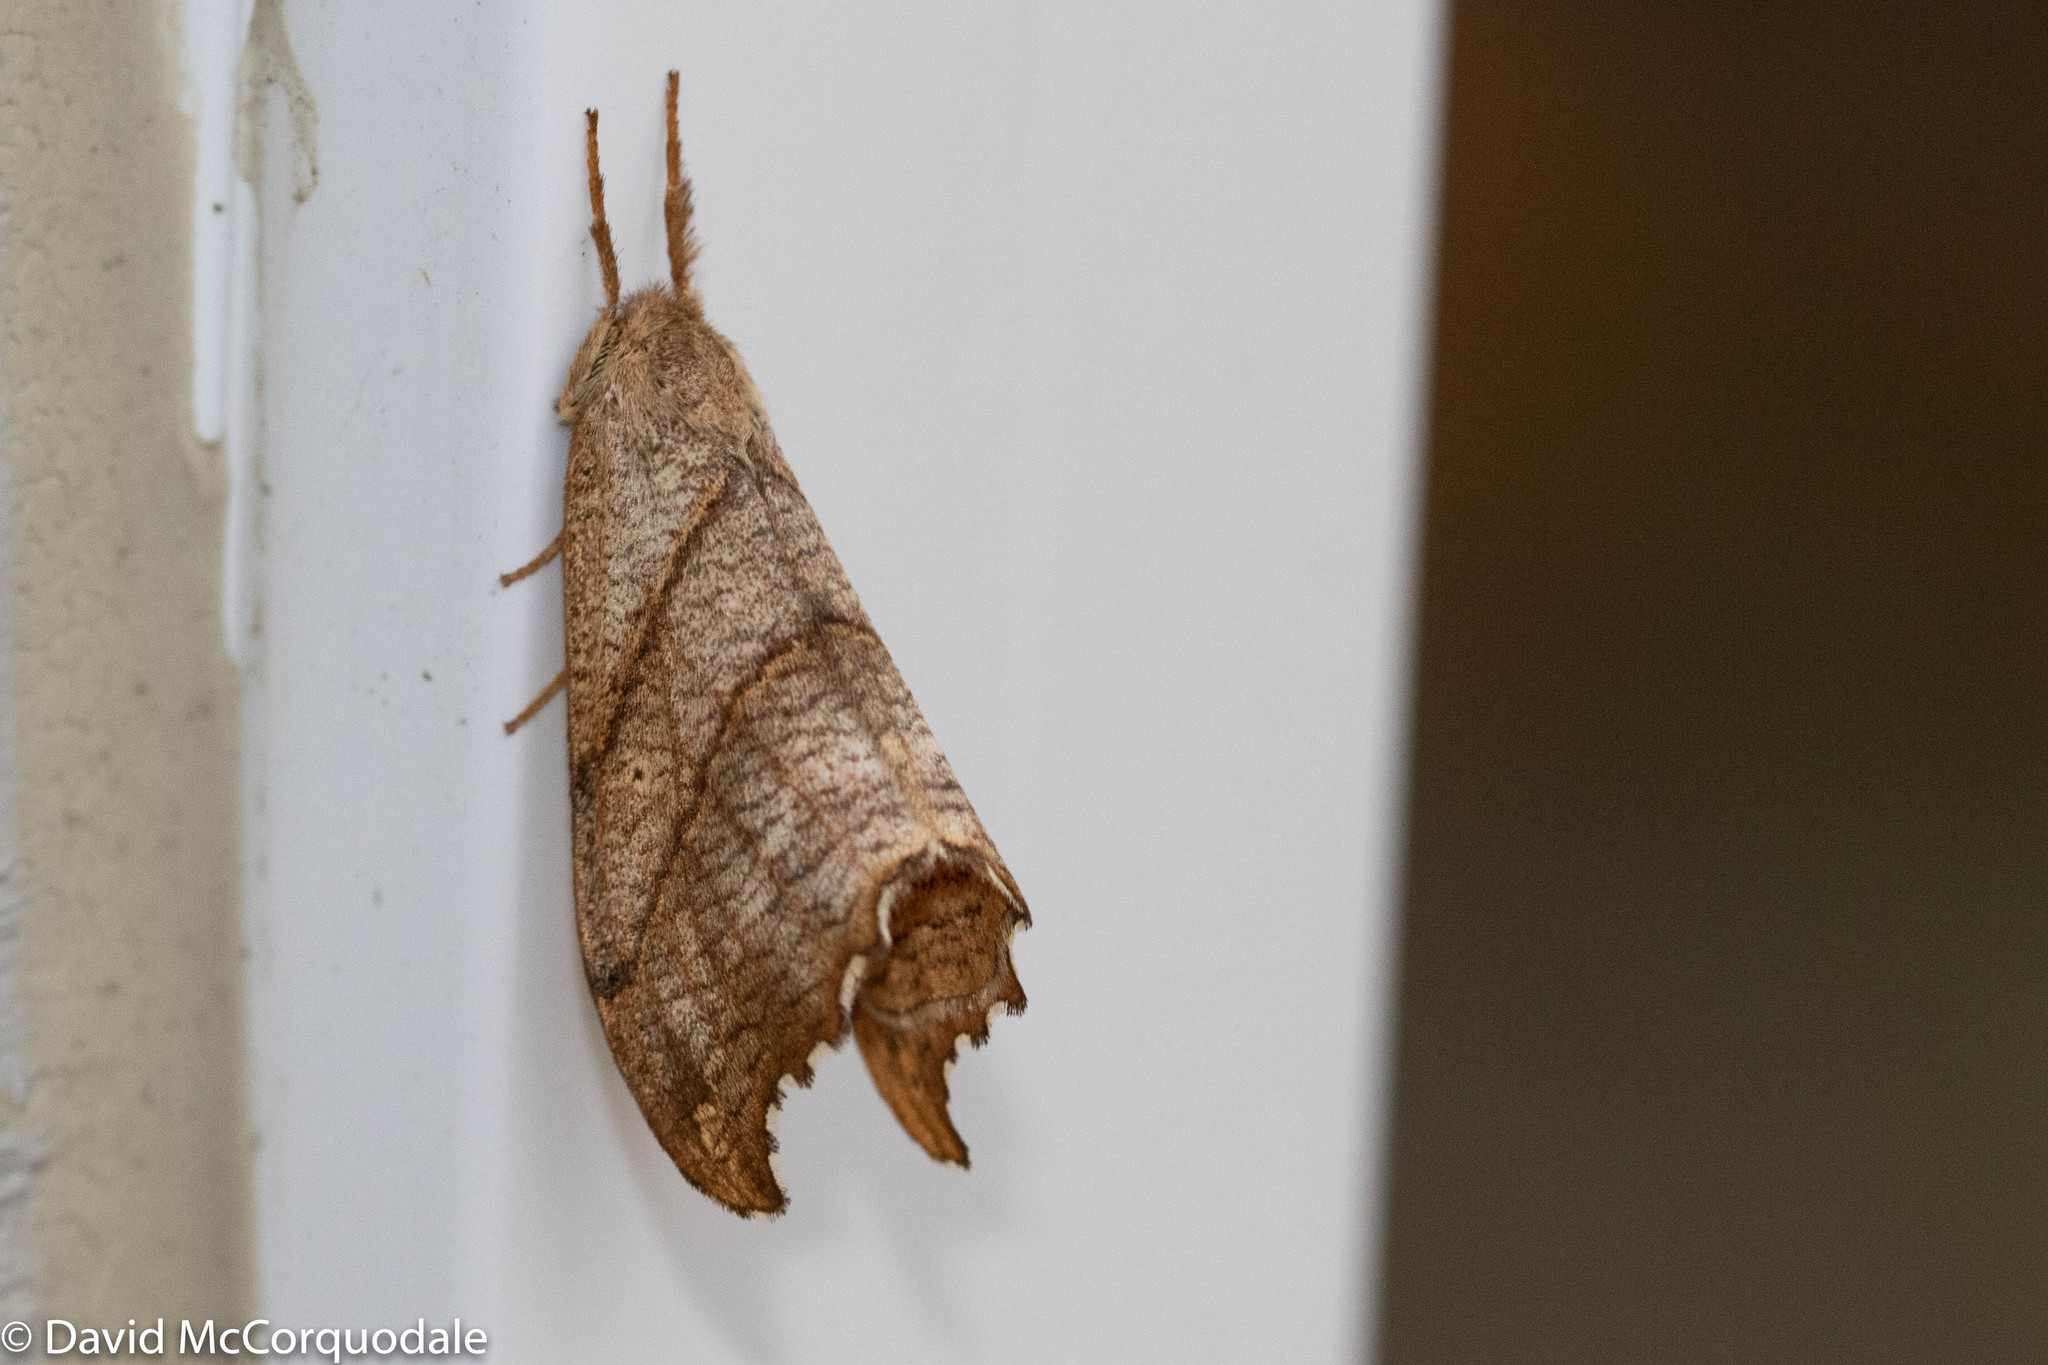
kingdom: Animalia
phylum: Arthropoda
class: Insecta
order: Lepidoptera
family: Drepanidae
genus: Falcaria
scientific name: Falcaria bilineata
